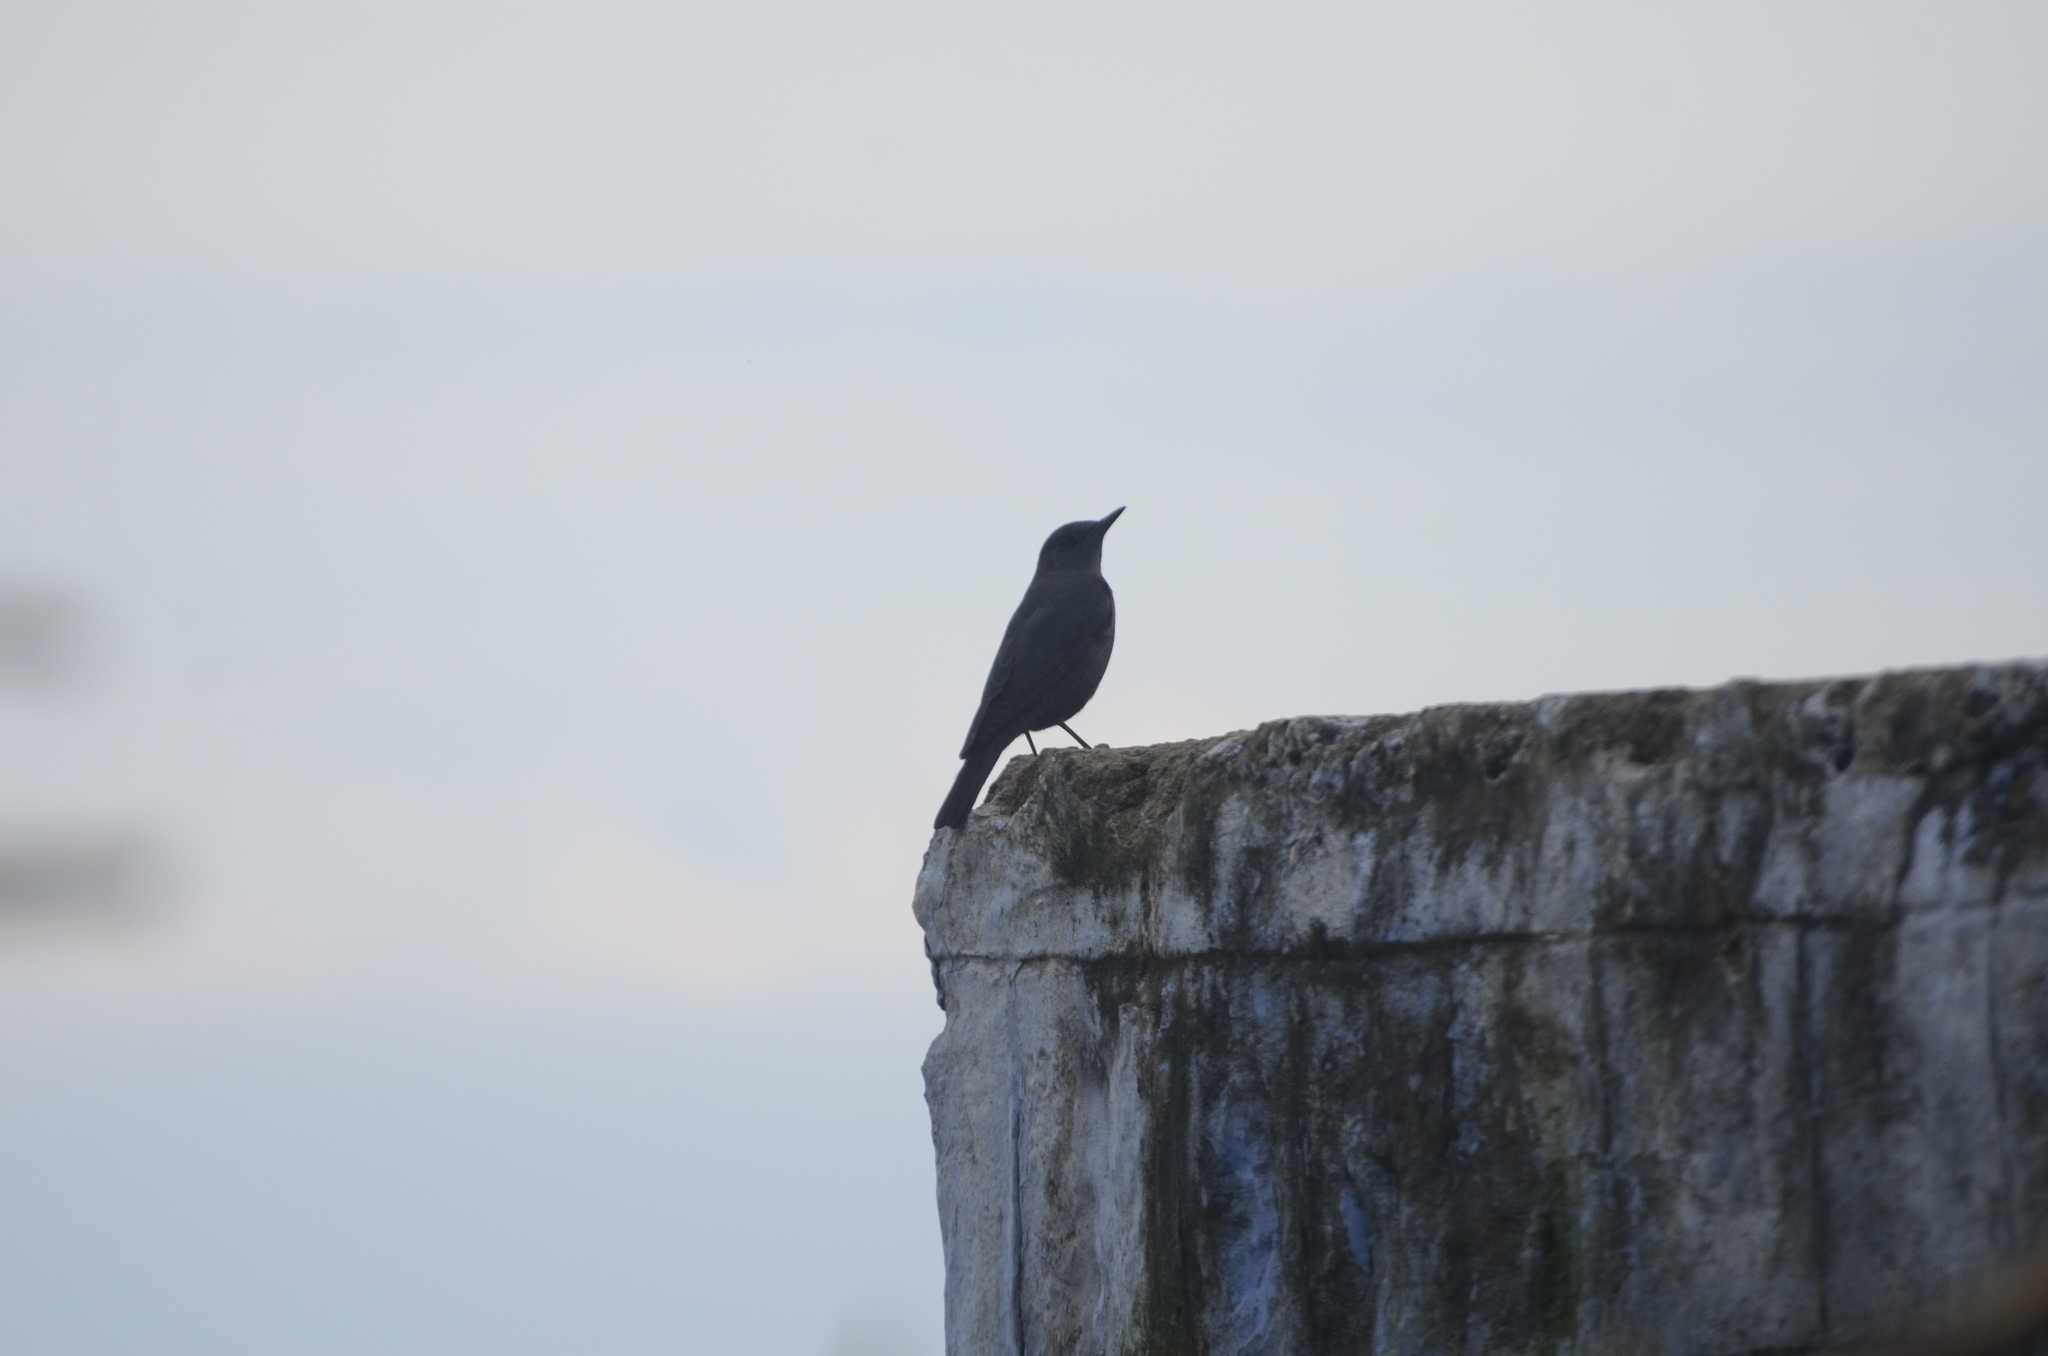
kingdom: Animalia
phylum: Chordata
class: Aves
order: Passeriformes
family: Muscicapidae
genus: Monticola
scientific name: Monticola solitarius
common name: Blue rock thrush
